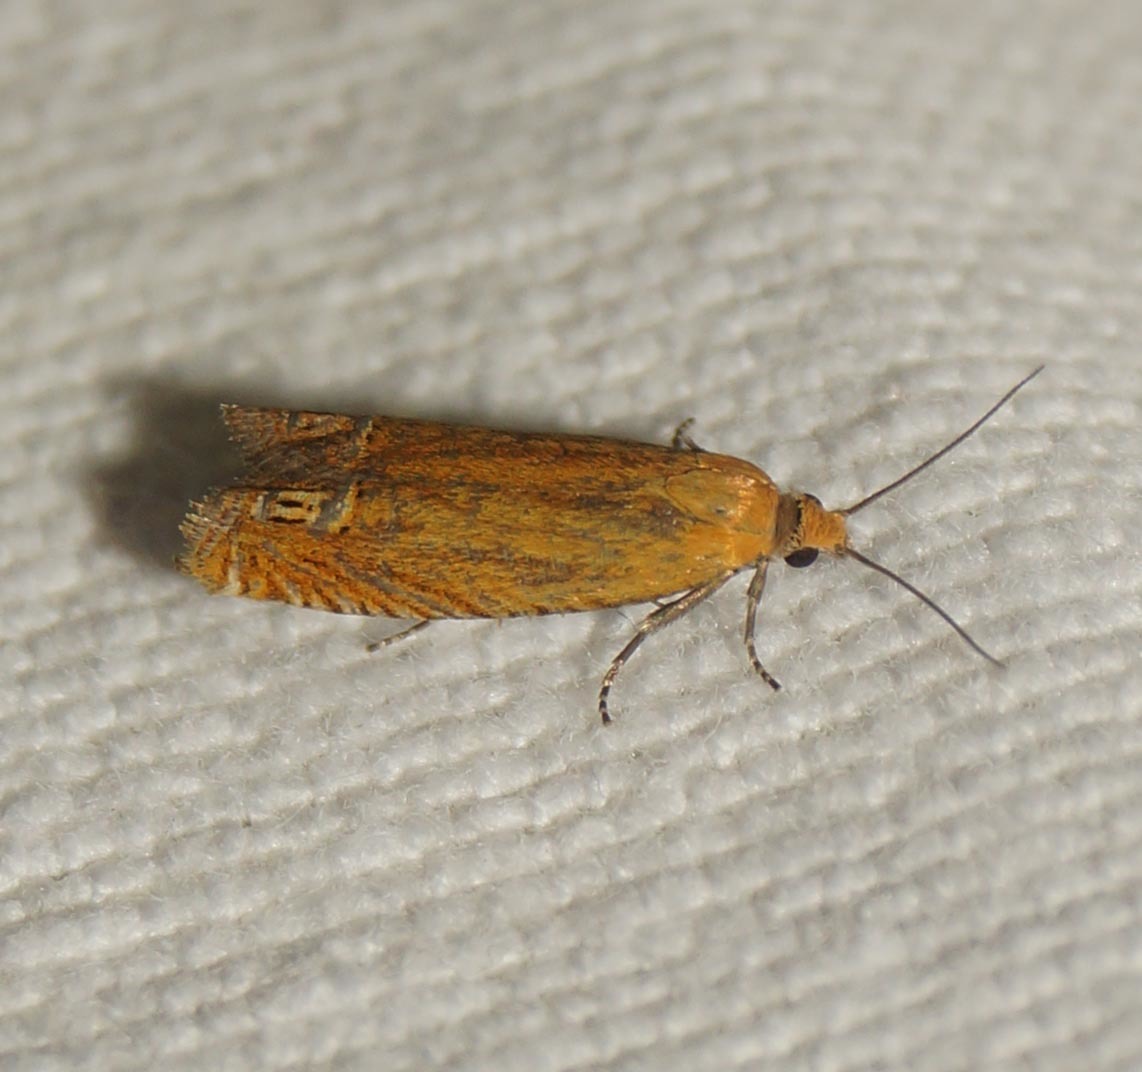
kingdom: Animalia
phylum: Arthropoda
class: Insecta
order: Lepidoptera
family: Tortricidae
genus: Lathronympha
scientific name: Lathronympha strigana
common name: Red piercer
